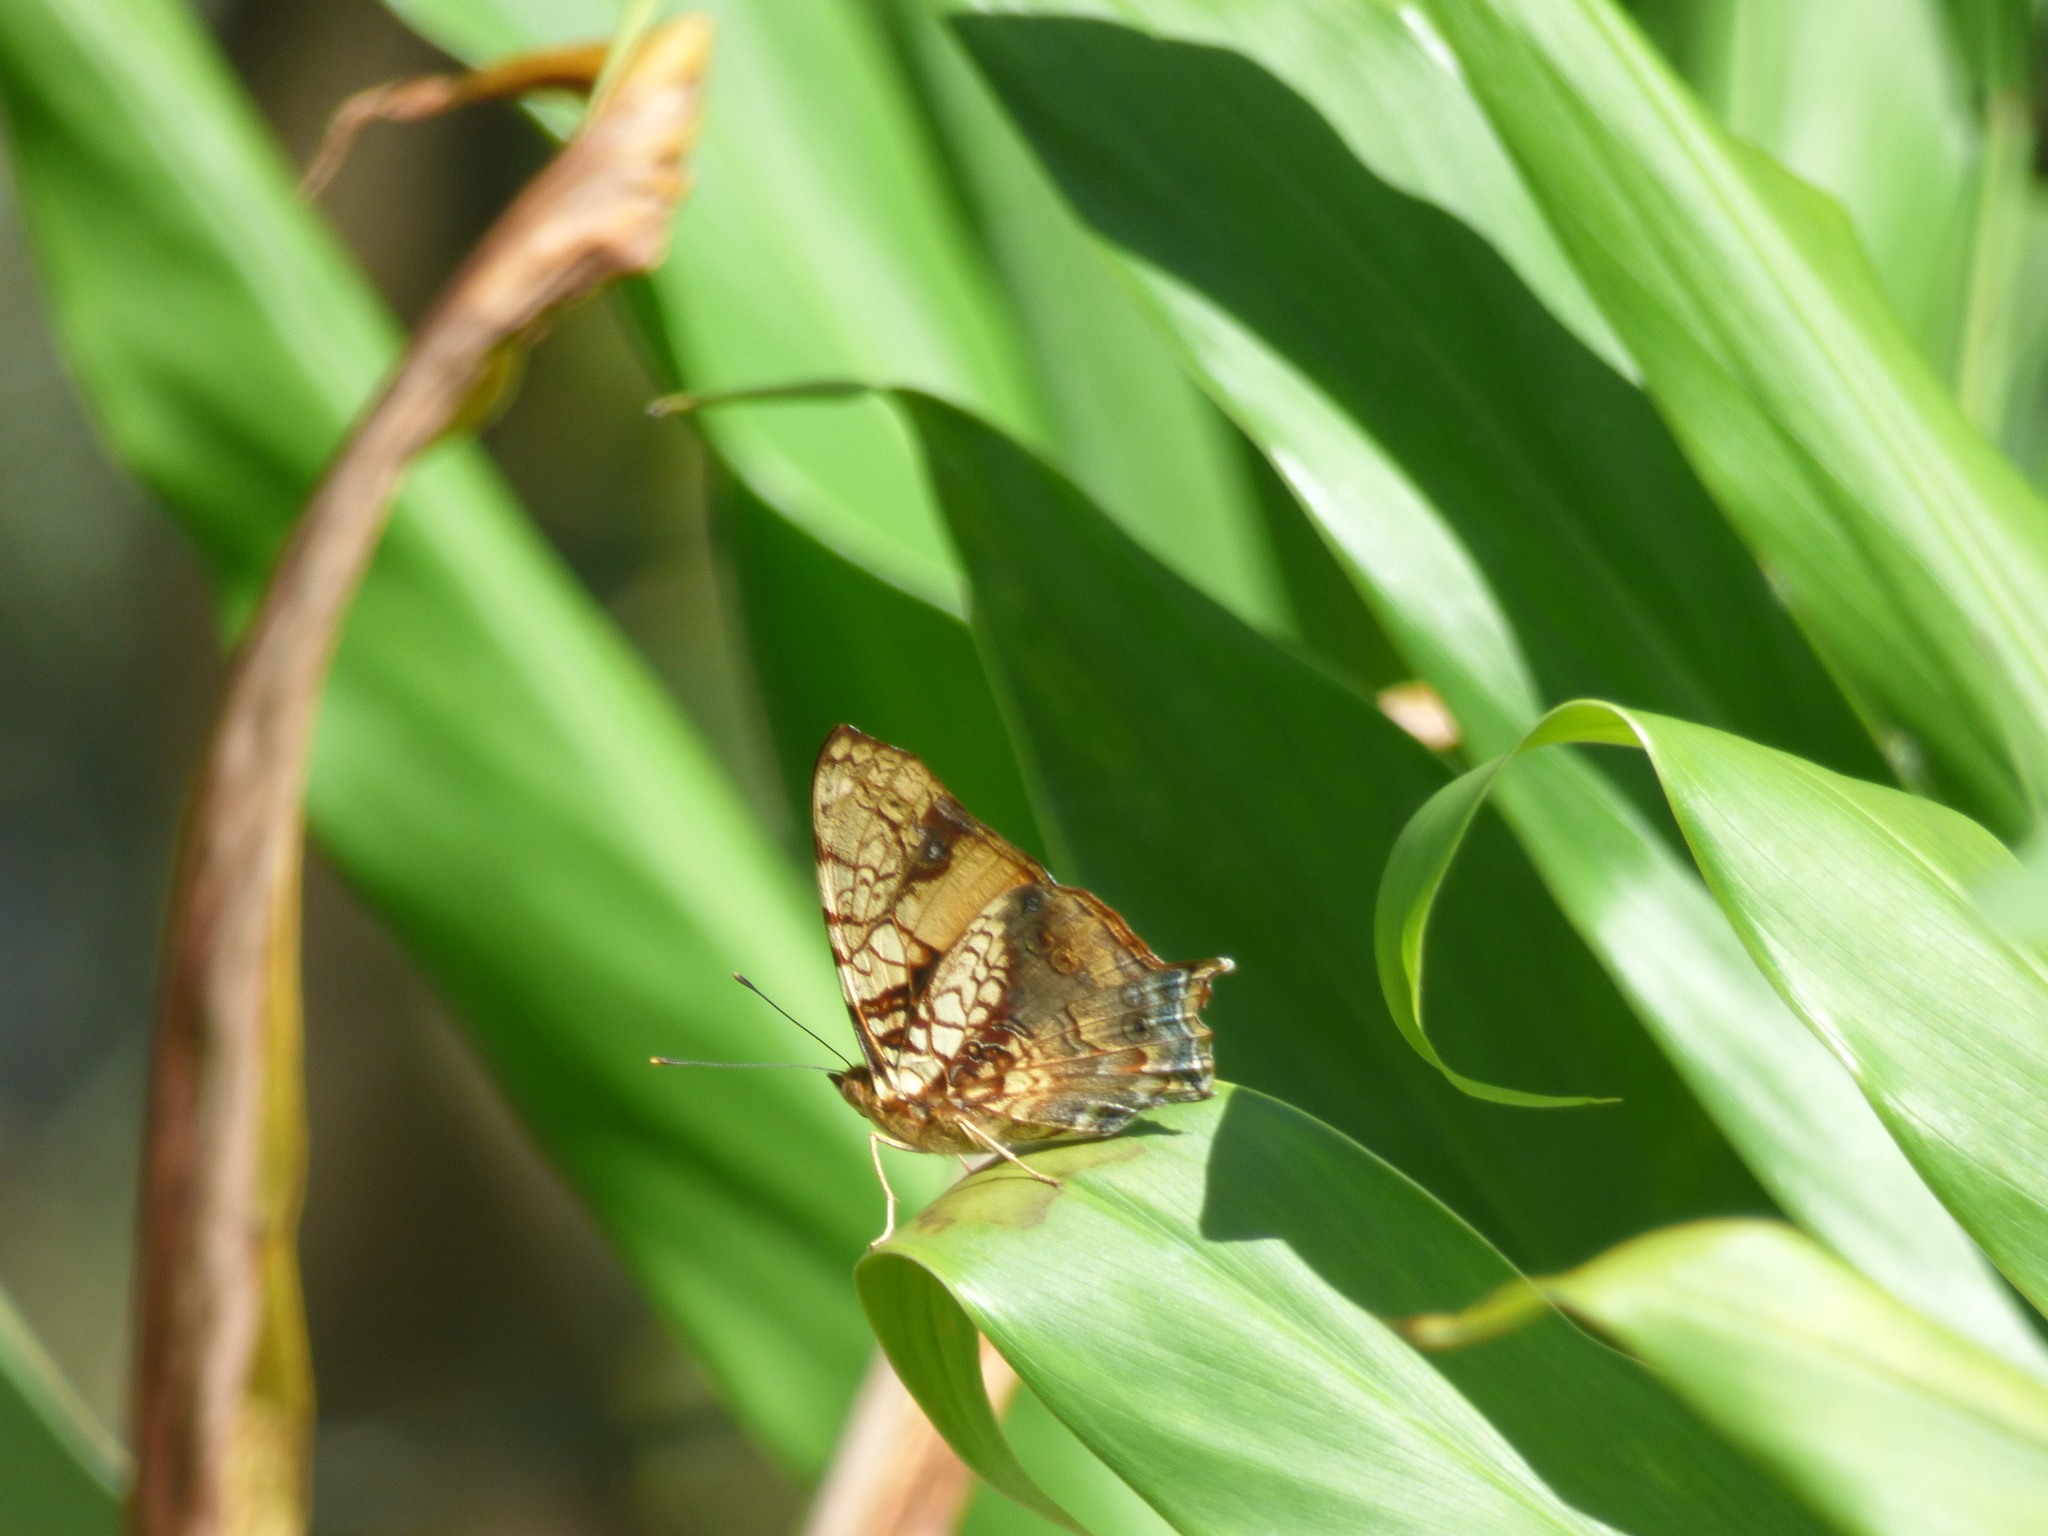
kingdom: Animalia
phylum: Arthropoda
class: Insecta
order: Lepidoptera
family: Nymphalidae
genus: Hypanartia
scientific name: Hypanartia lethe
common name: Orange mapwing
